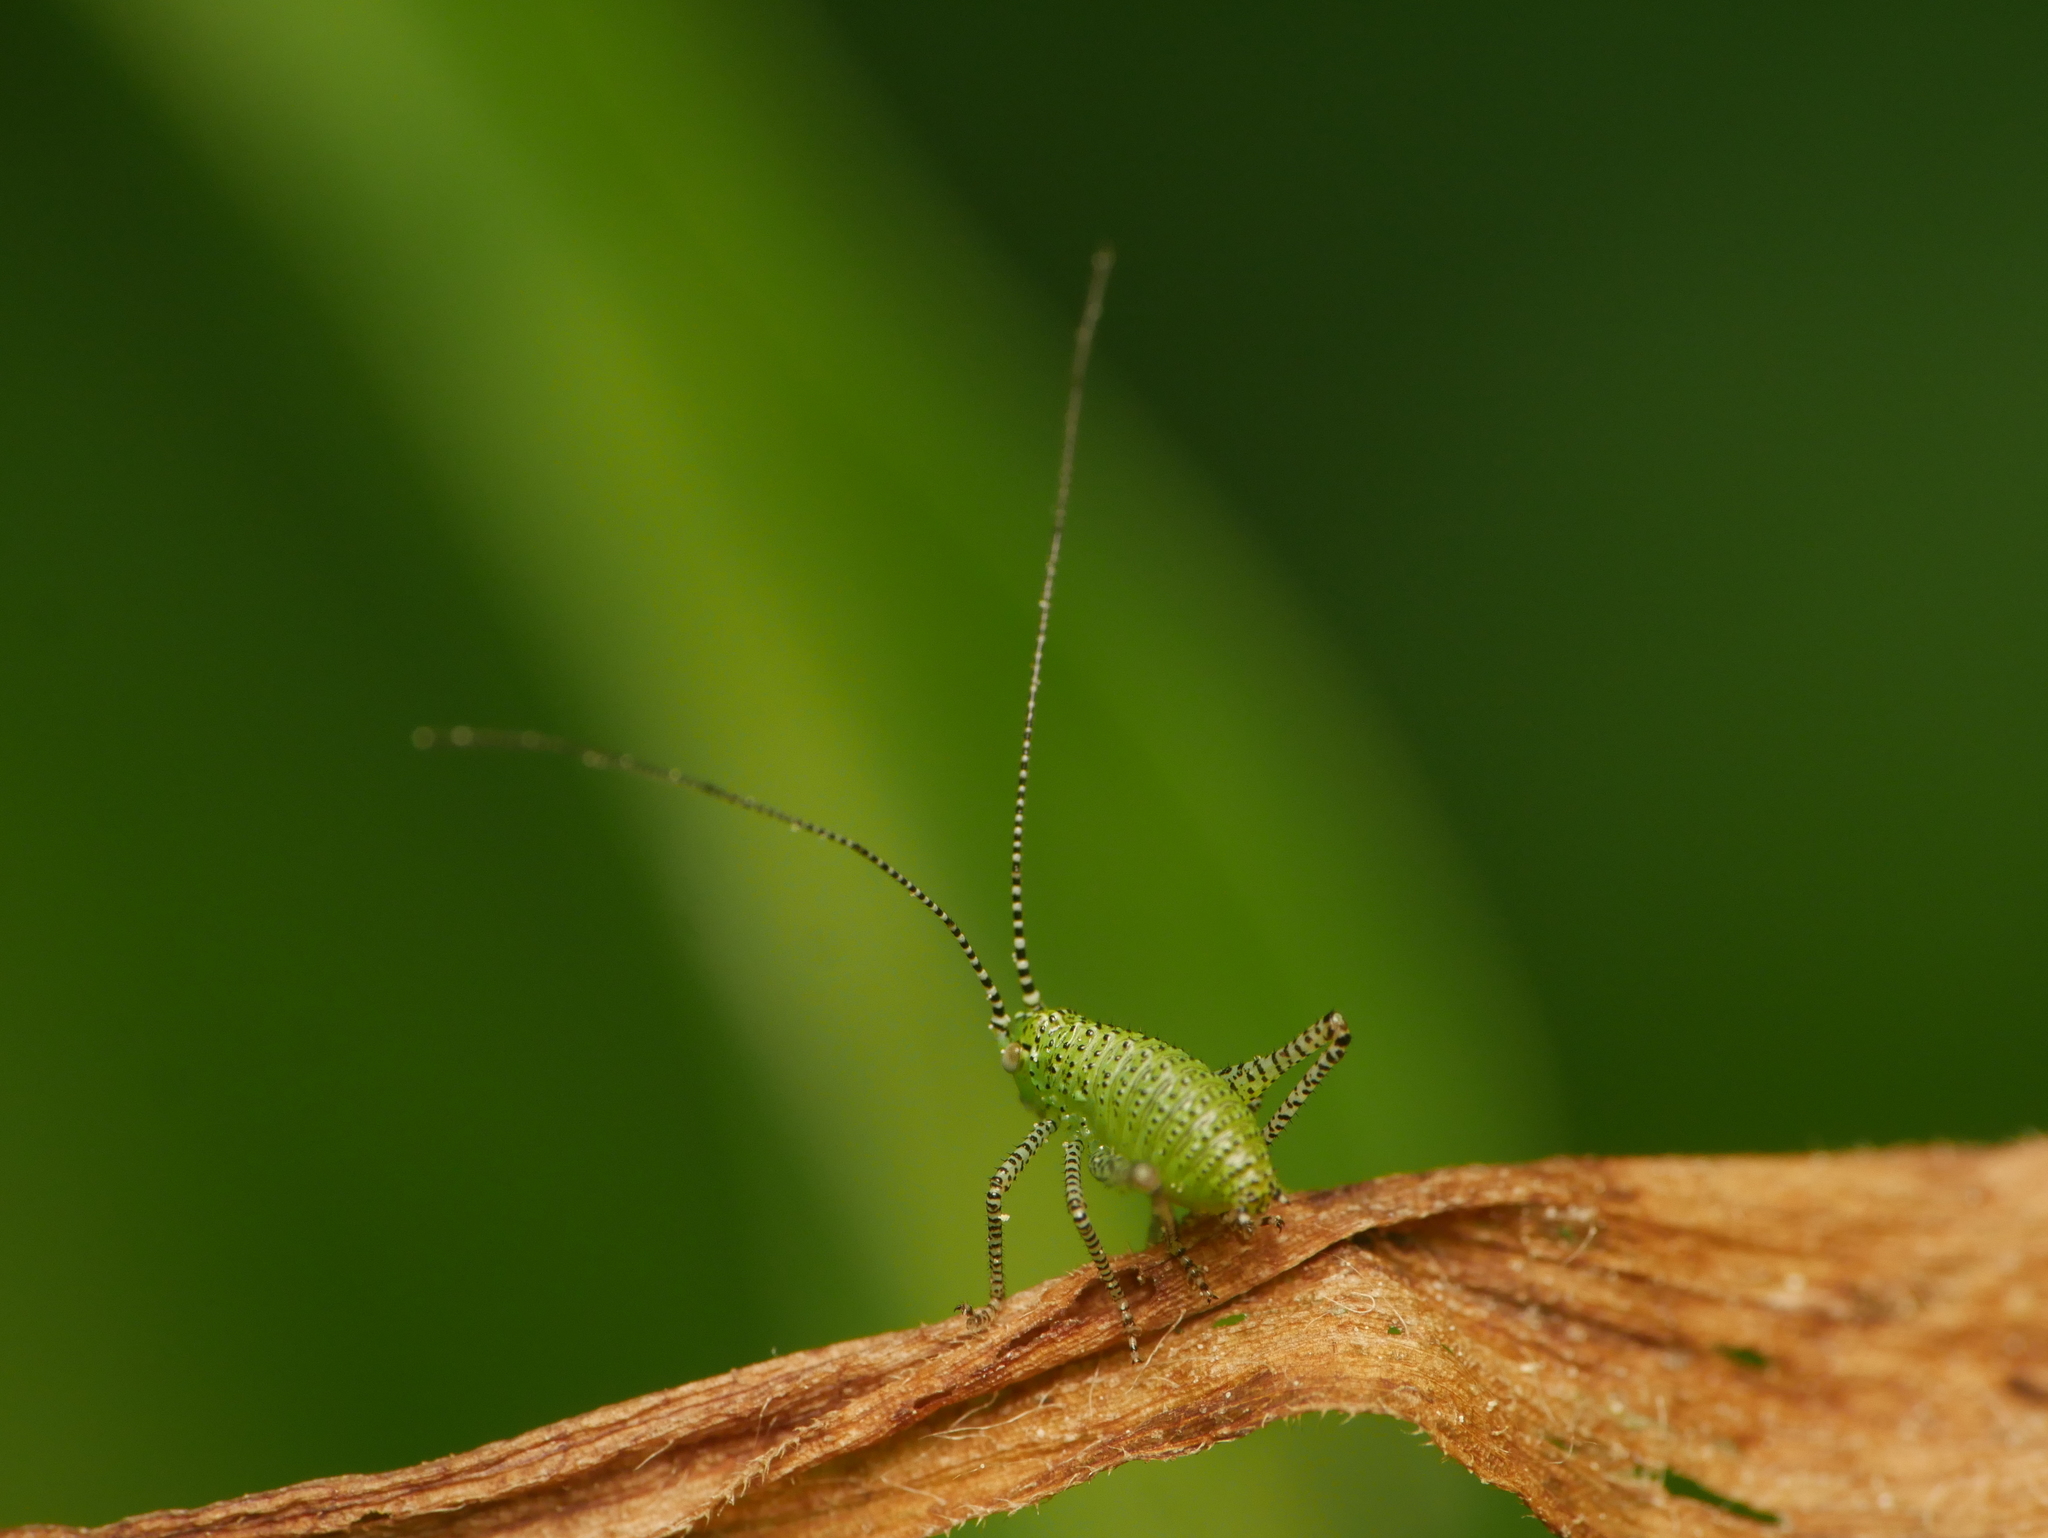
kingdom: Animalia
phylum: Arthropoda
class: Insecta
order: Orthoptera
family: Tettigoniidae
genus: Leptophyes
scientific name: Leptophyes punctatissima
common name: Speckled bush-cricket
